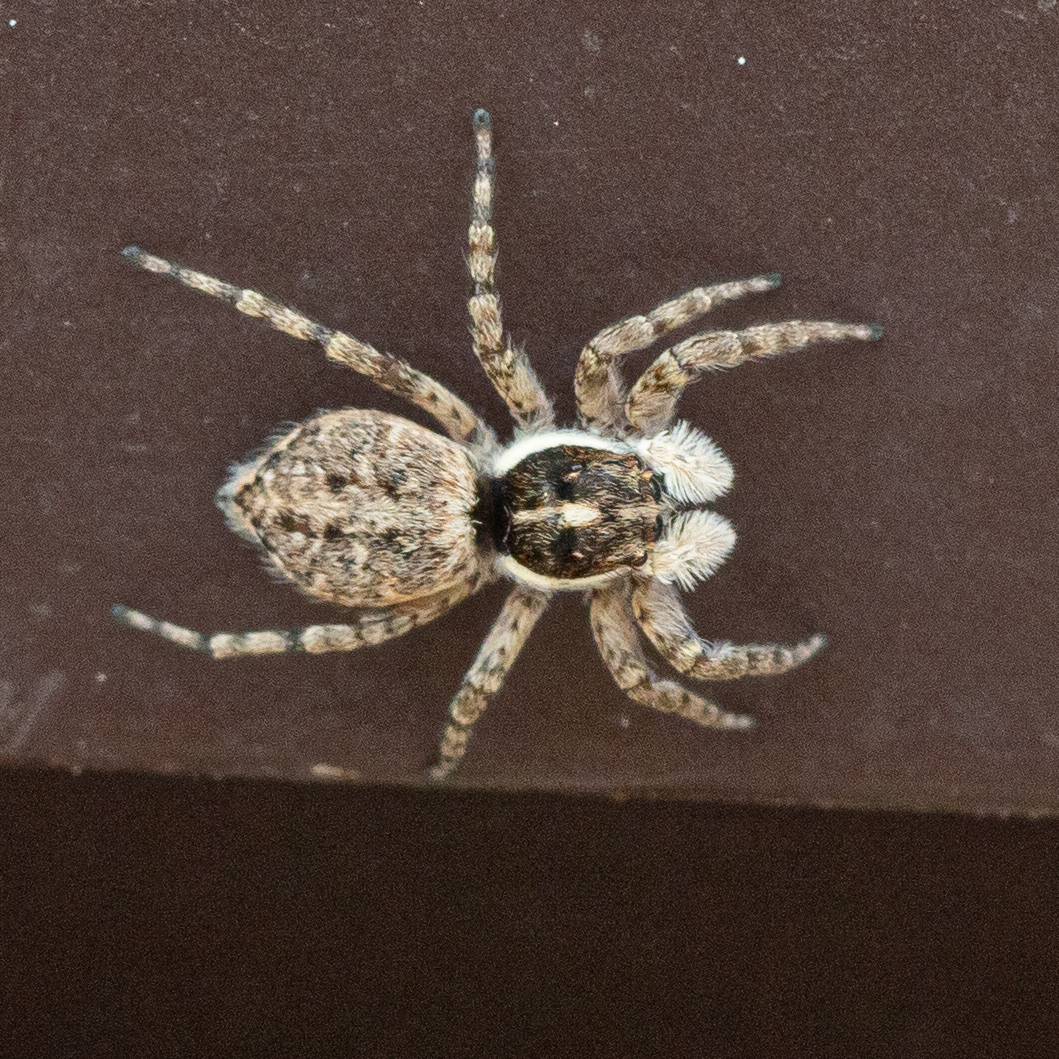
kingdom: Animalia
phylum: Arthropoda
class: Arachnida
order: Araneae
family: Salticidae
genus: Menemerus
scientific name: Menemerus semilimbatus
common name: Jumping spider
